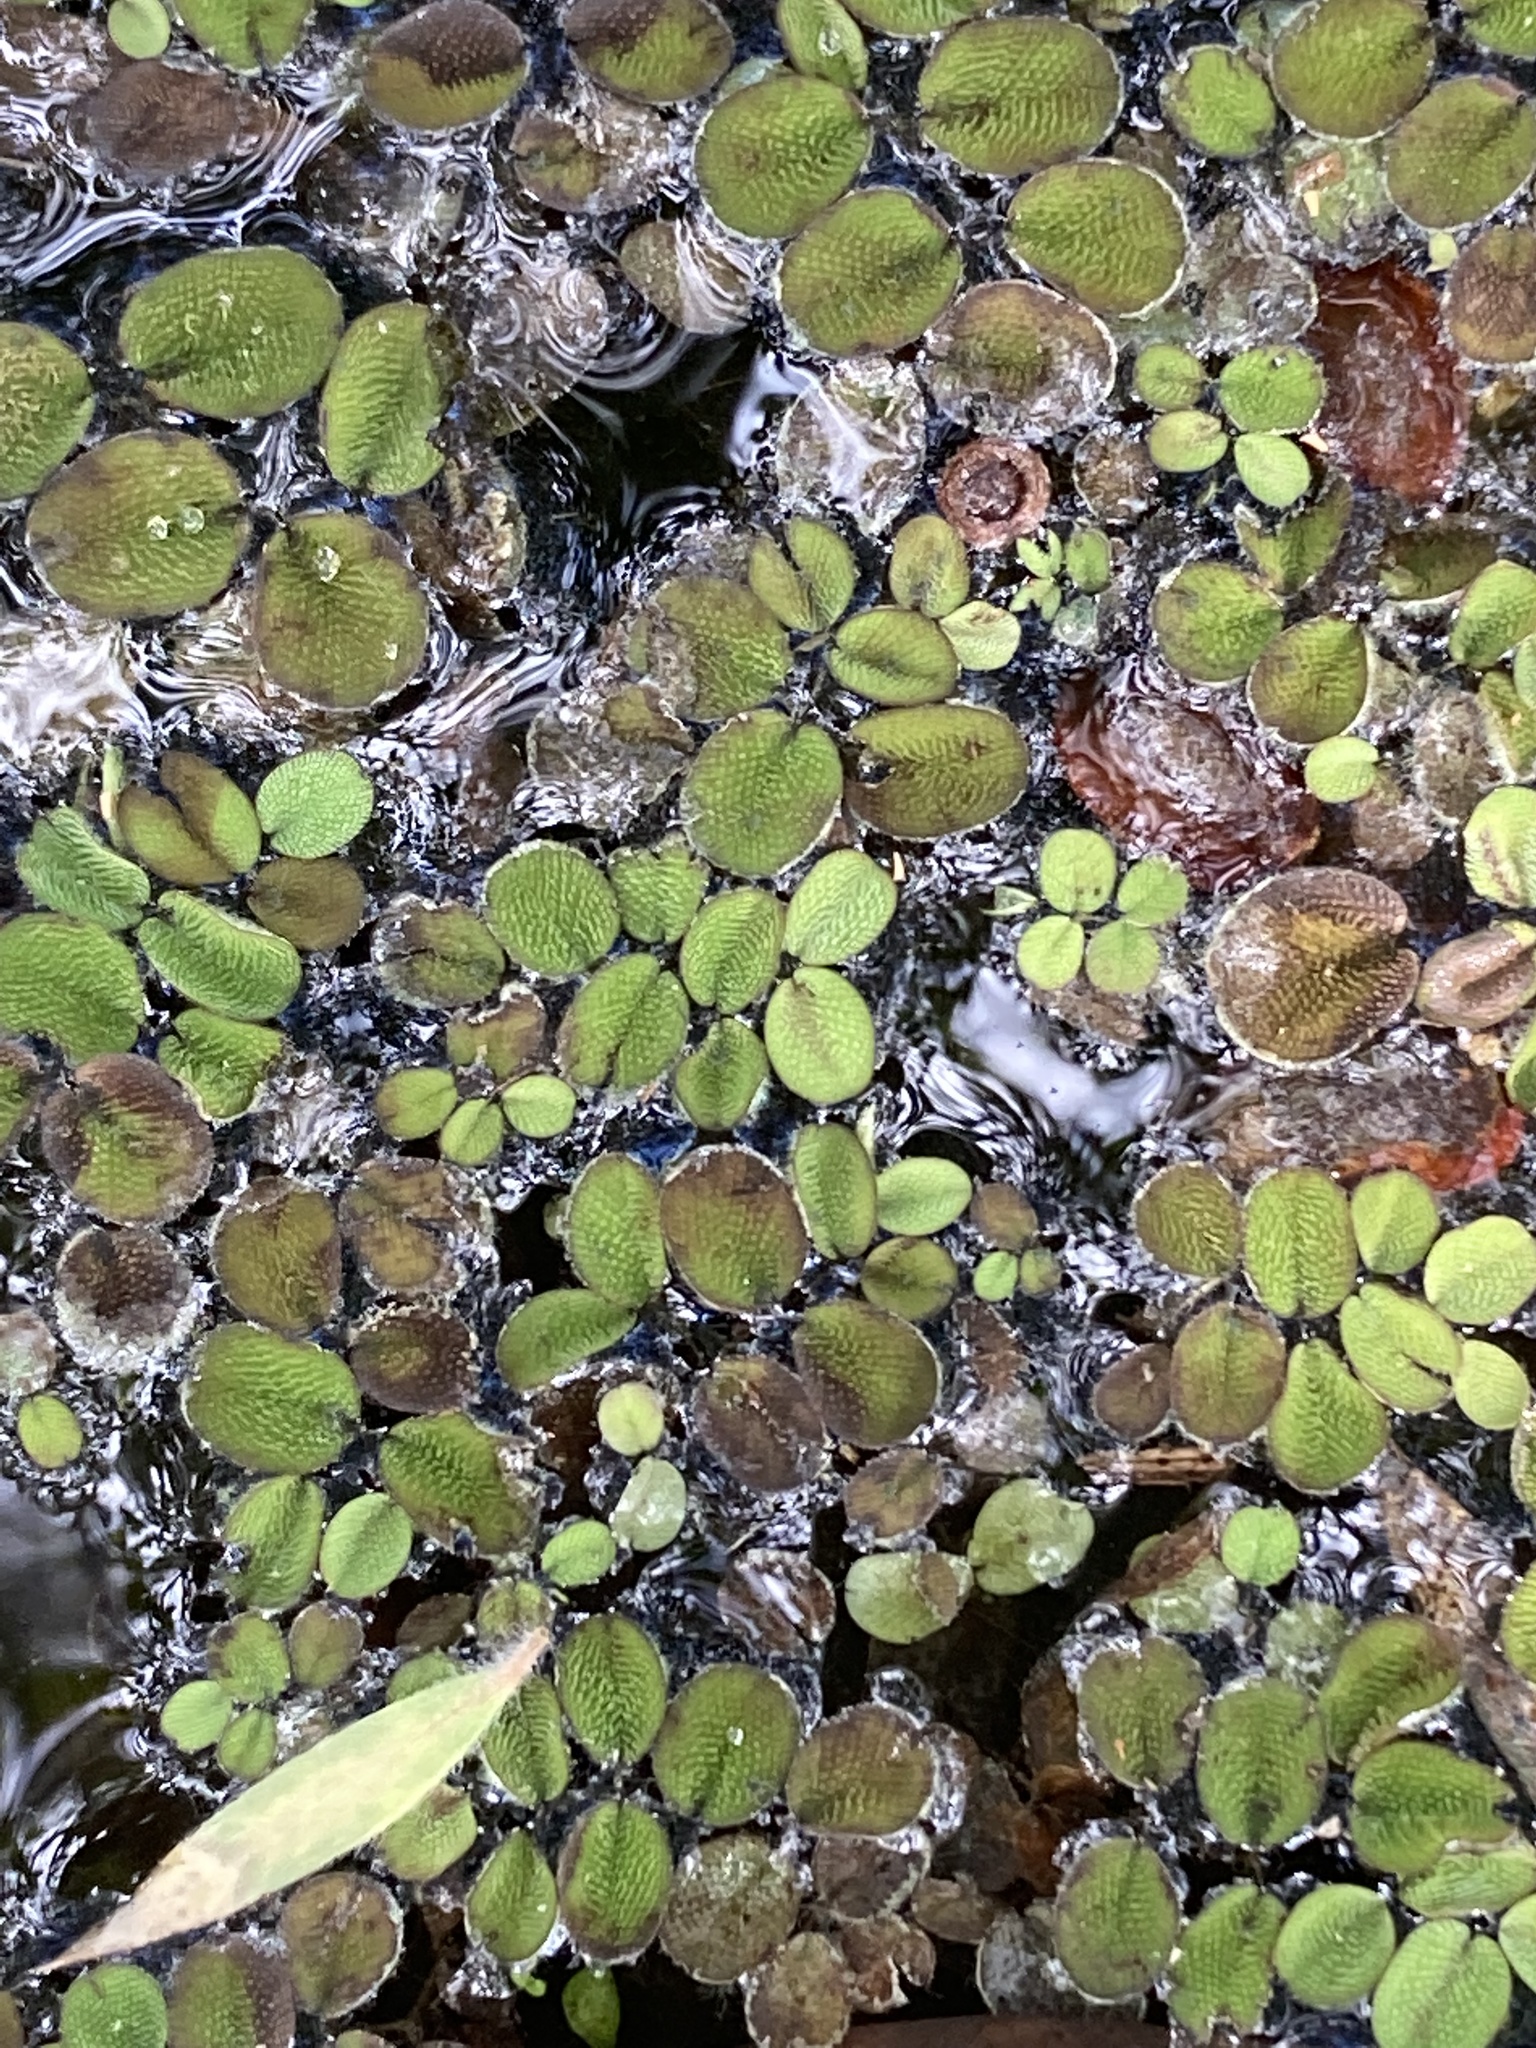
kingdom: Plantae
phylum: Tracheophyta
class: Polypodiopsida
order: Salviniales
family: Salviniaceae
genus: Salvinia
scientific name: Salvinia minima
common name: Water spangles
